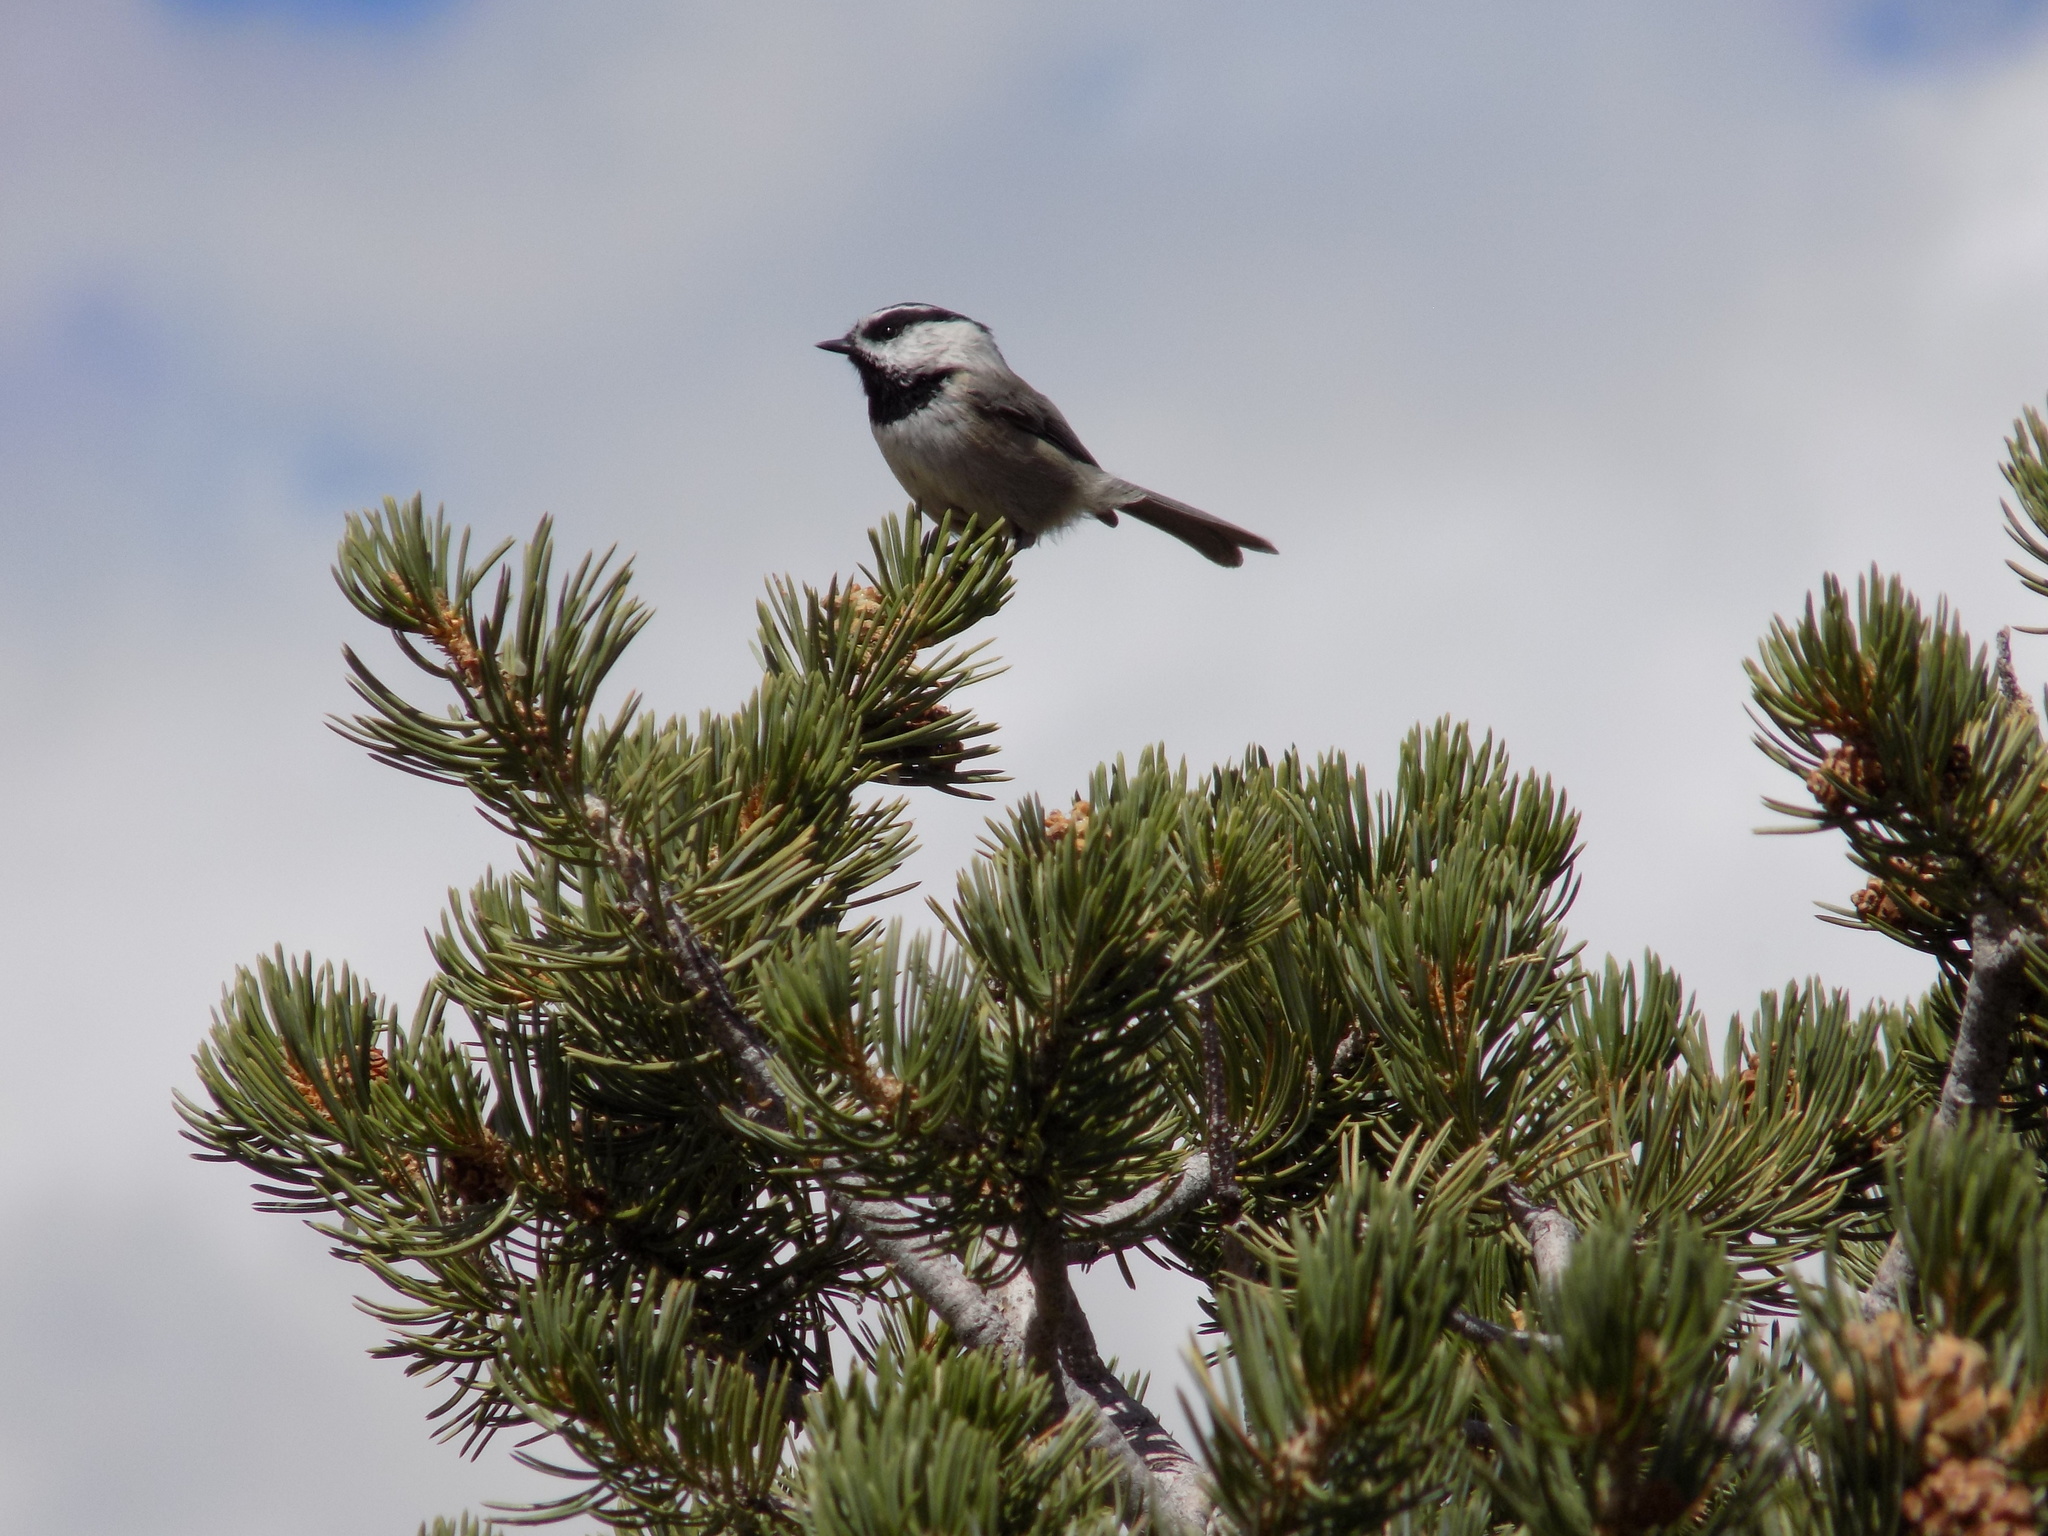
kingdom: Animalia
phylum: Chordata
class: Aves
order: Passeriformes
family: Paridae
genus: Poecile
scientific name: Poecile gambeli
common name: Mountain chickadee
